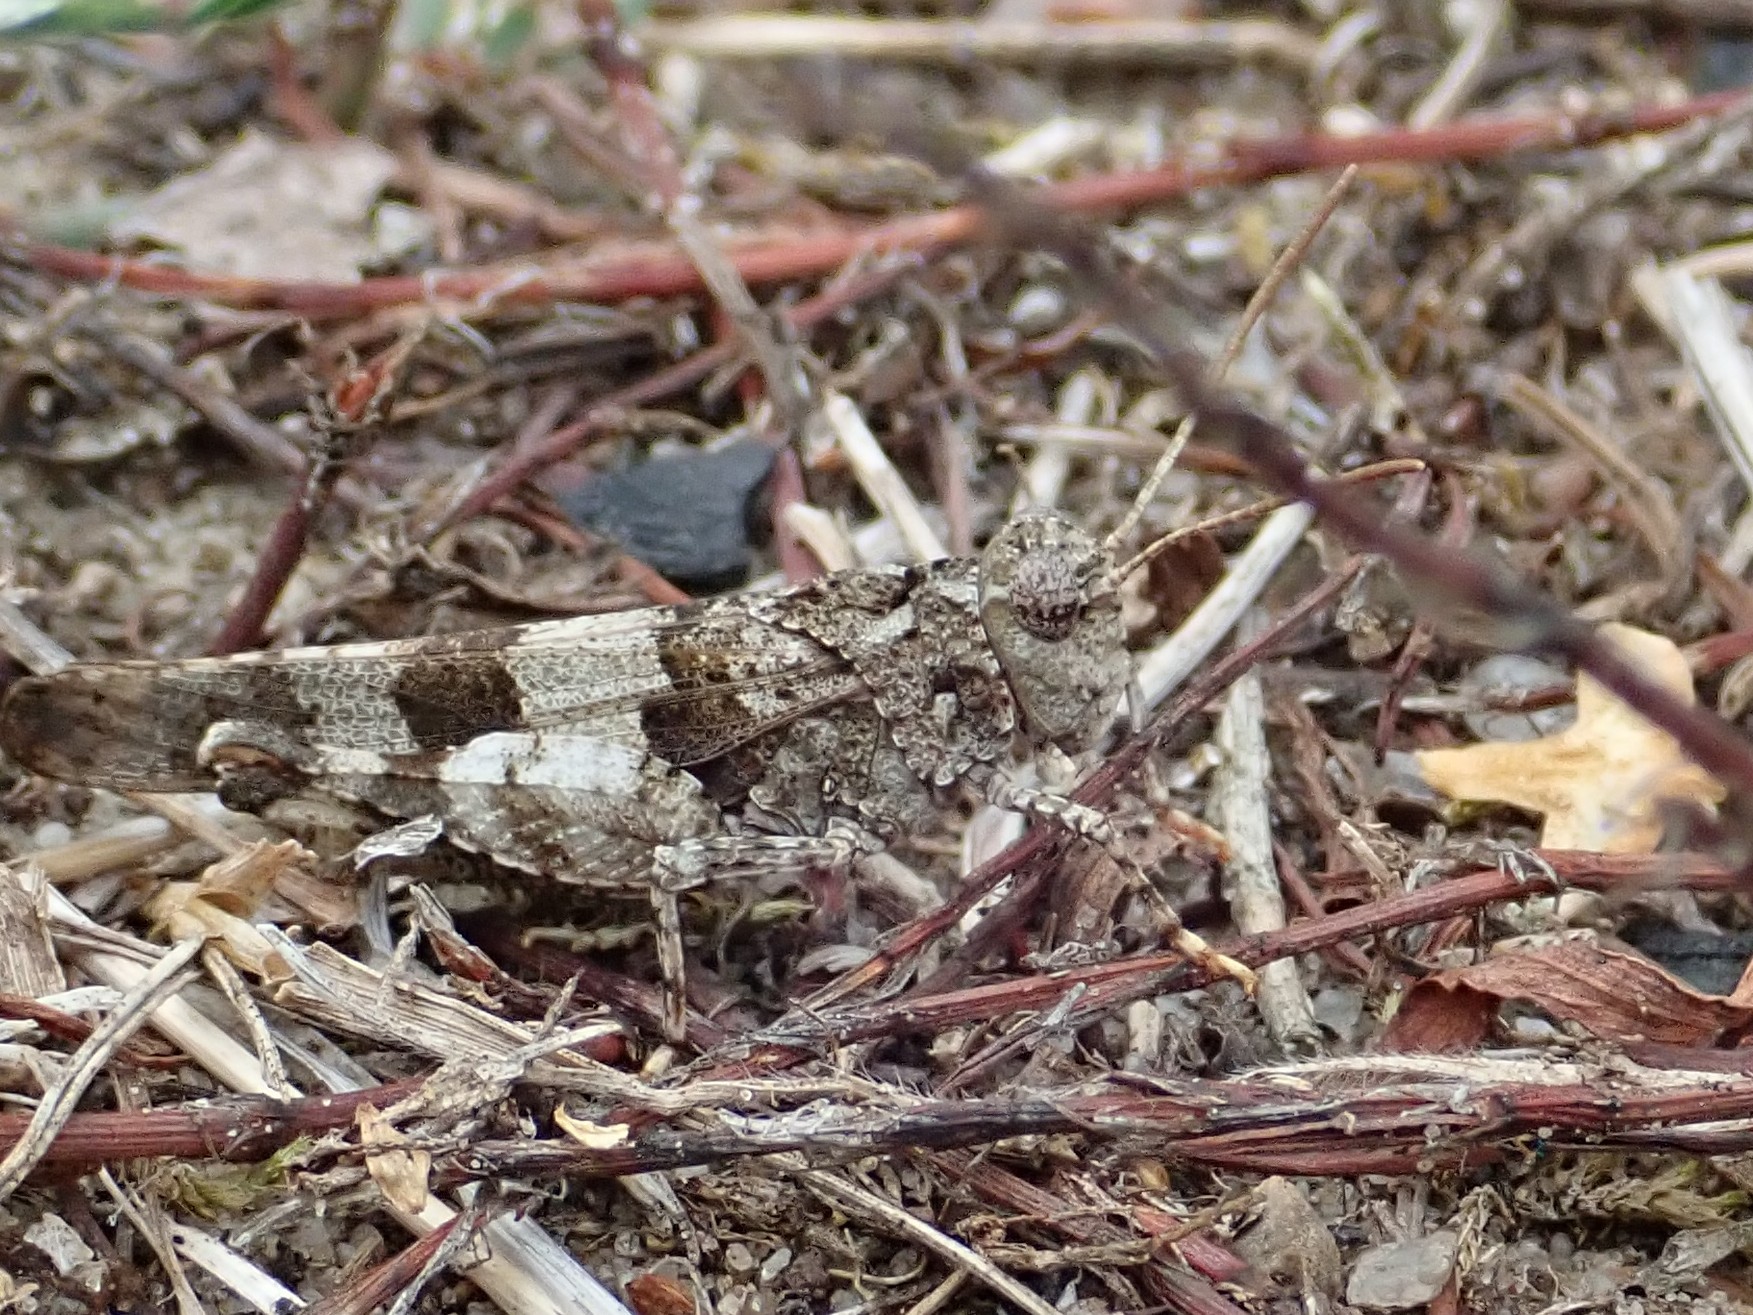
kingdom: Animalia
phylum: Arthropoda
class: Insecta
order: Orthoptera
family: Acrididae
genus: Oedipoda
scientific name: Oedipoda caerulescens
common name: Blue-winged grasshopper
